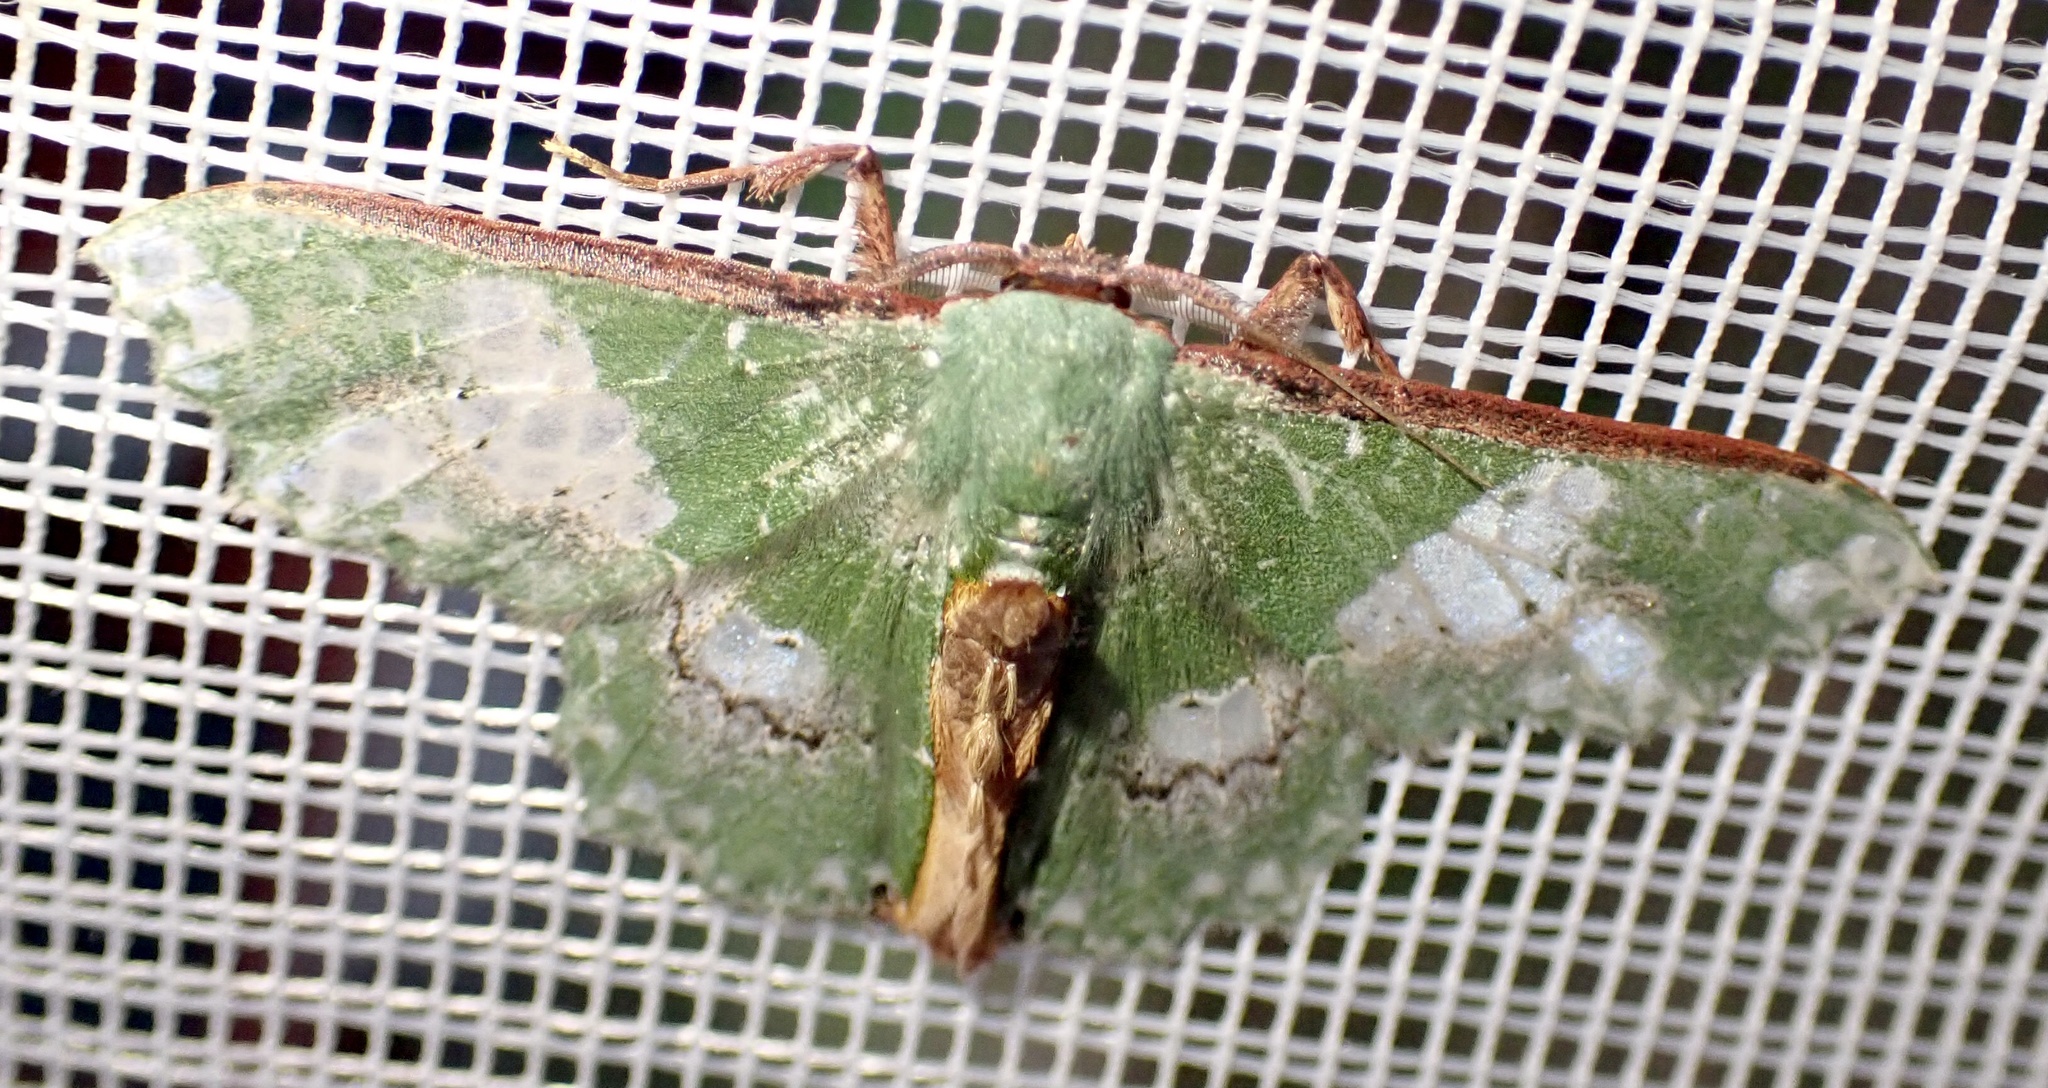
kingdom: Animalia
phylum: Arthropoda
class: Insecta
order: Lepidoptera
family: Geometridae
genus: Victoria
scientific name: Victoria perornata
